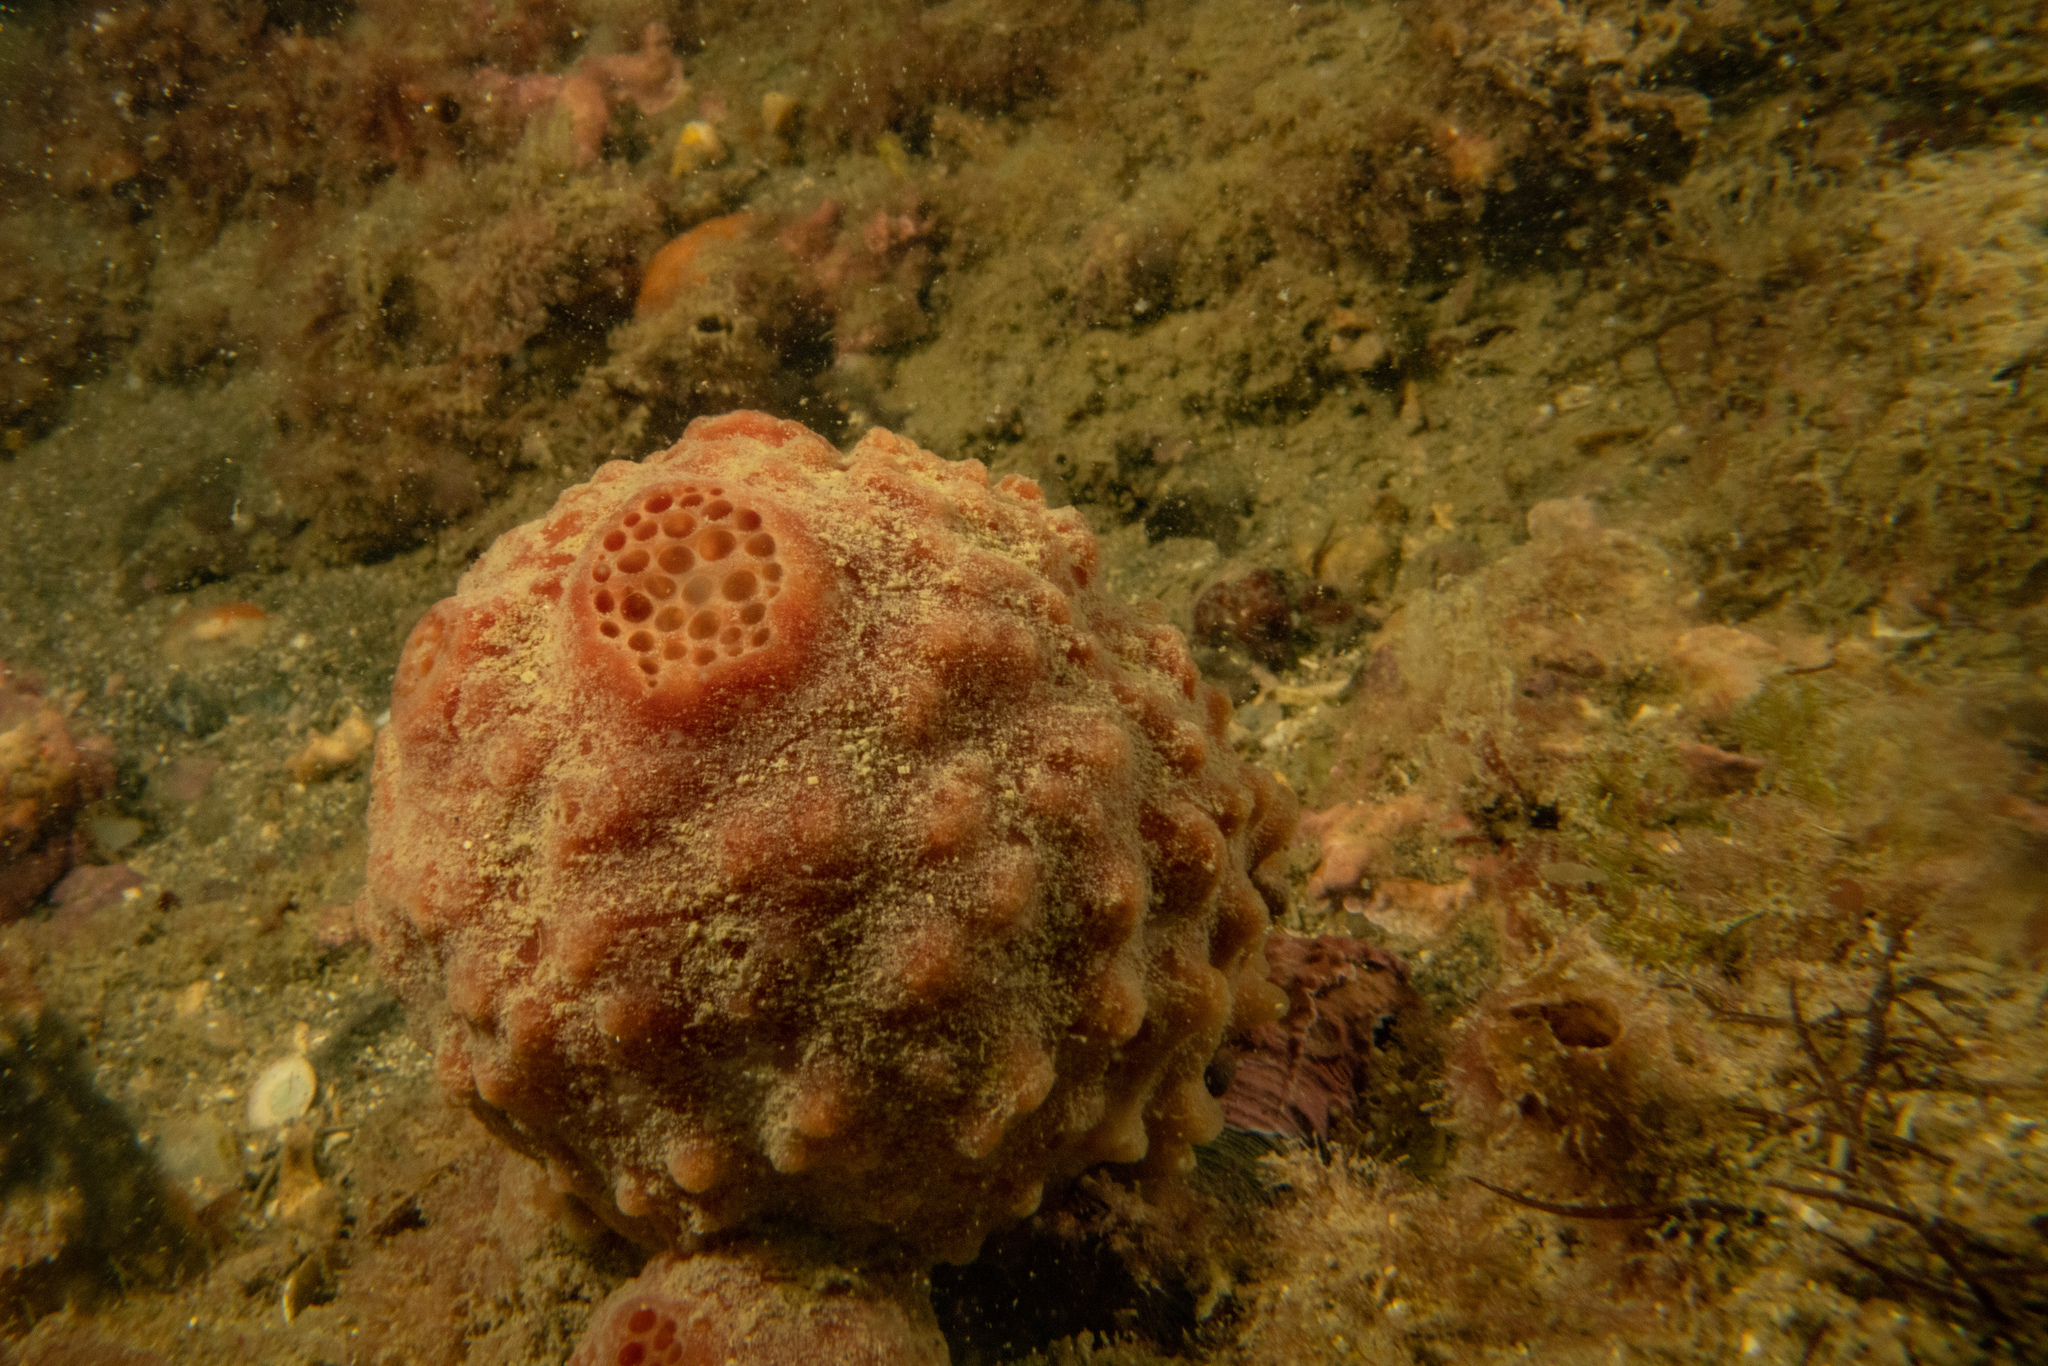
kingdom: Animalia
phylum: Porifera
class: Demospongiae
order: Suberitida
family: Suberitidae
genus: Aaptos
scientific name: Aaptos globosa
